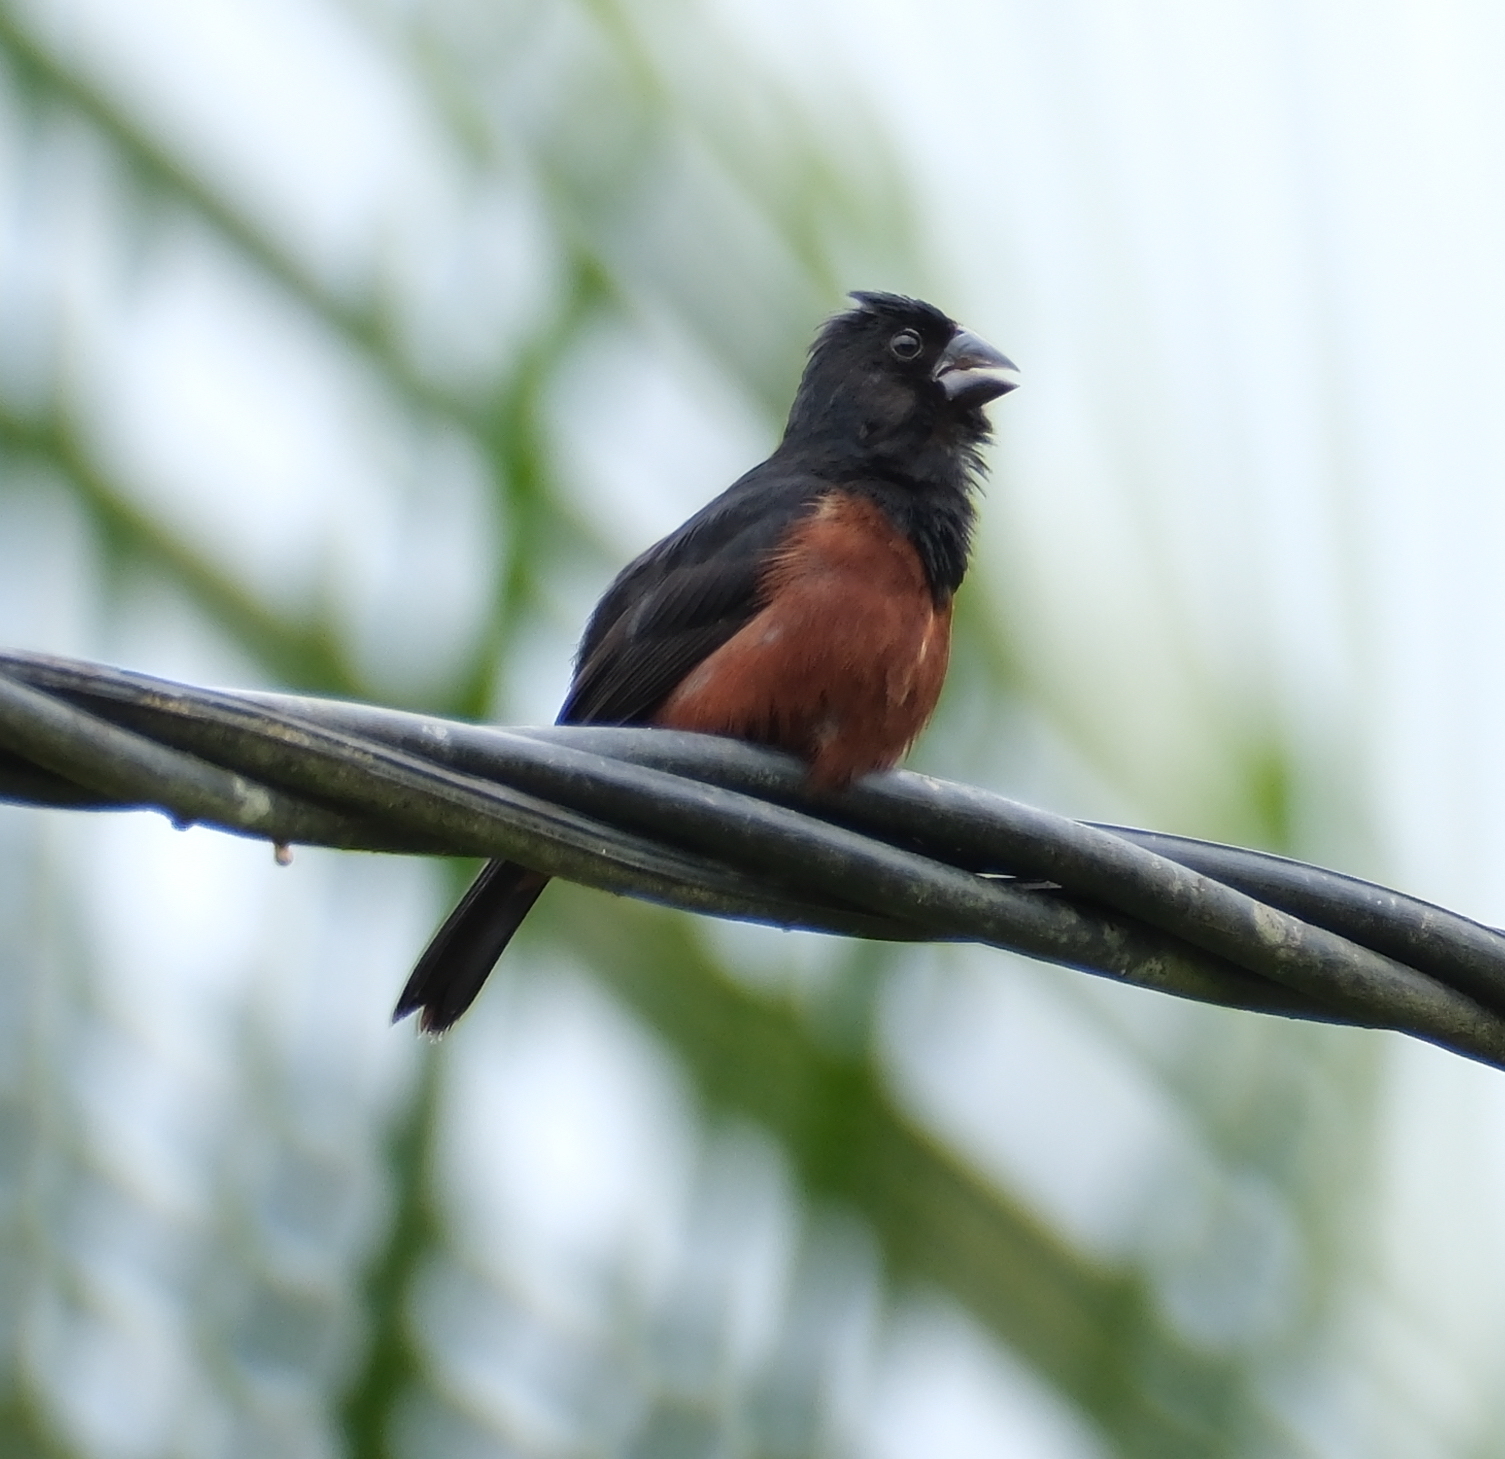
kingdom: Animalia
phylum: Chordata
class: Aves
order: Passeriformes
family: Thraupidae
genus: Sporophila
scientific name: Sporophila angolensis
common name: Chestnut-bellied seed-finch
